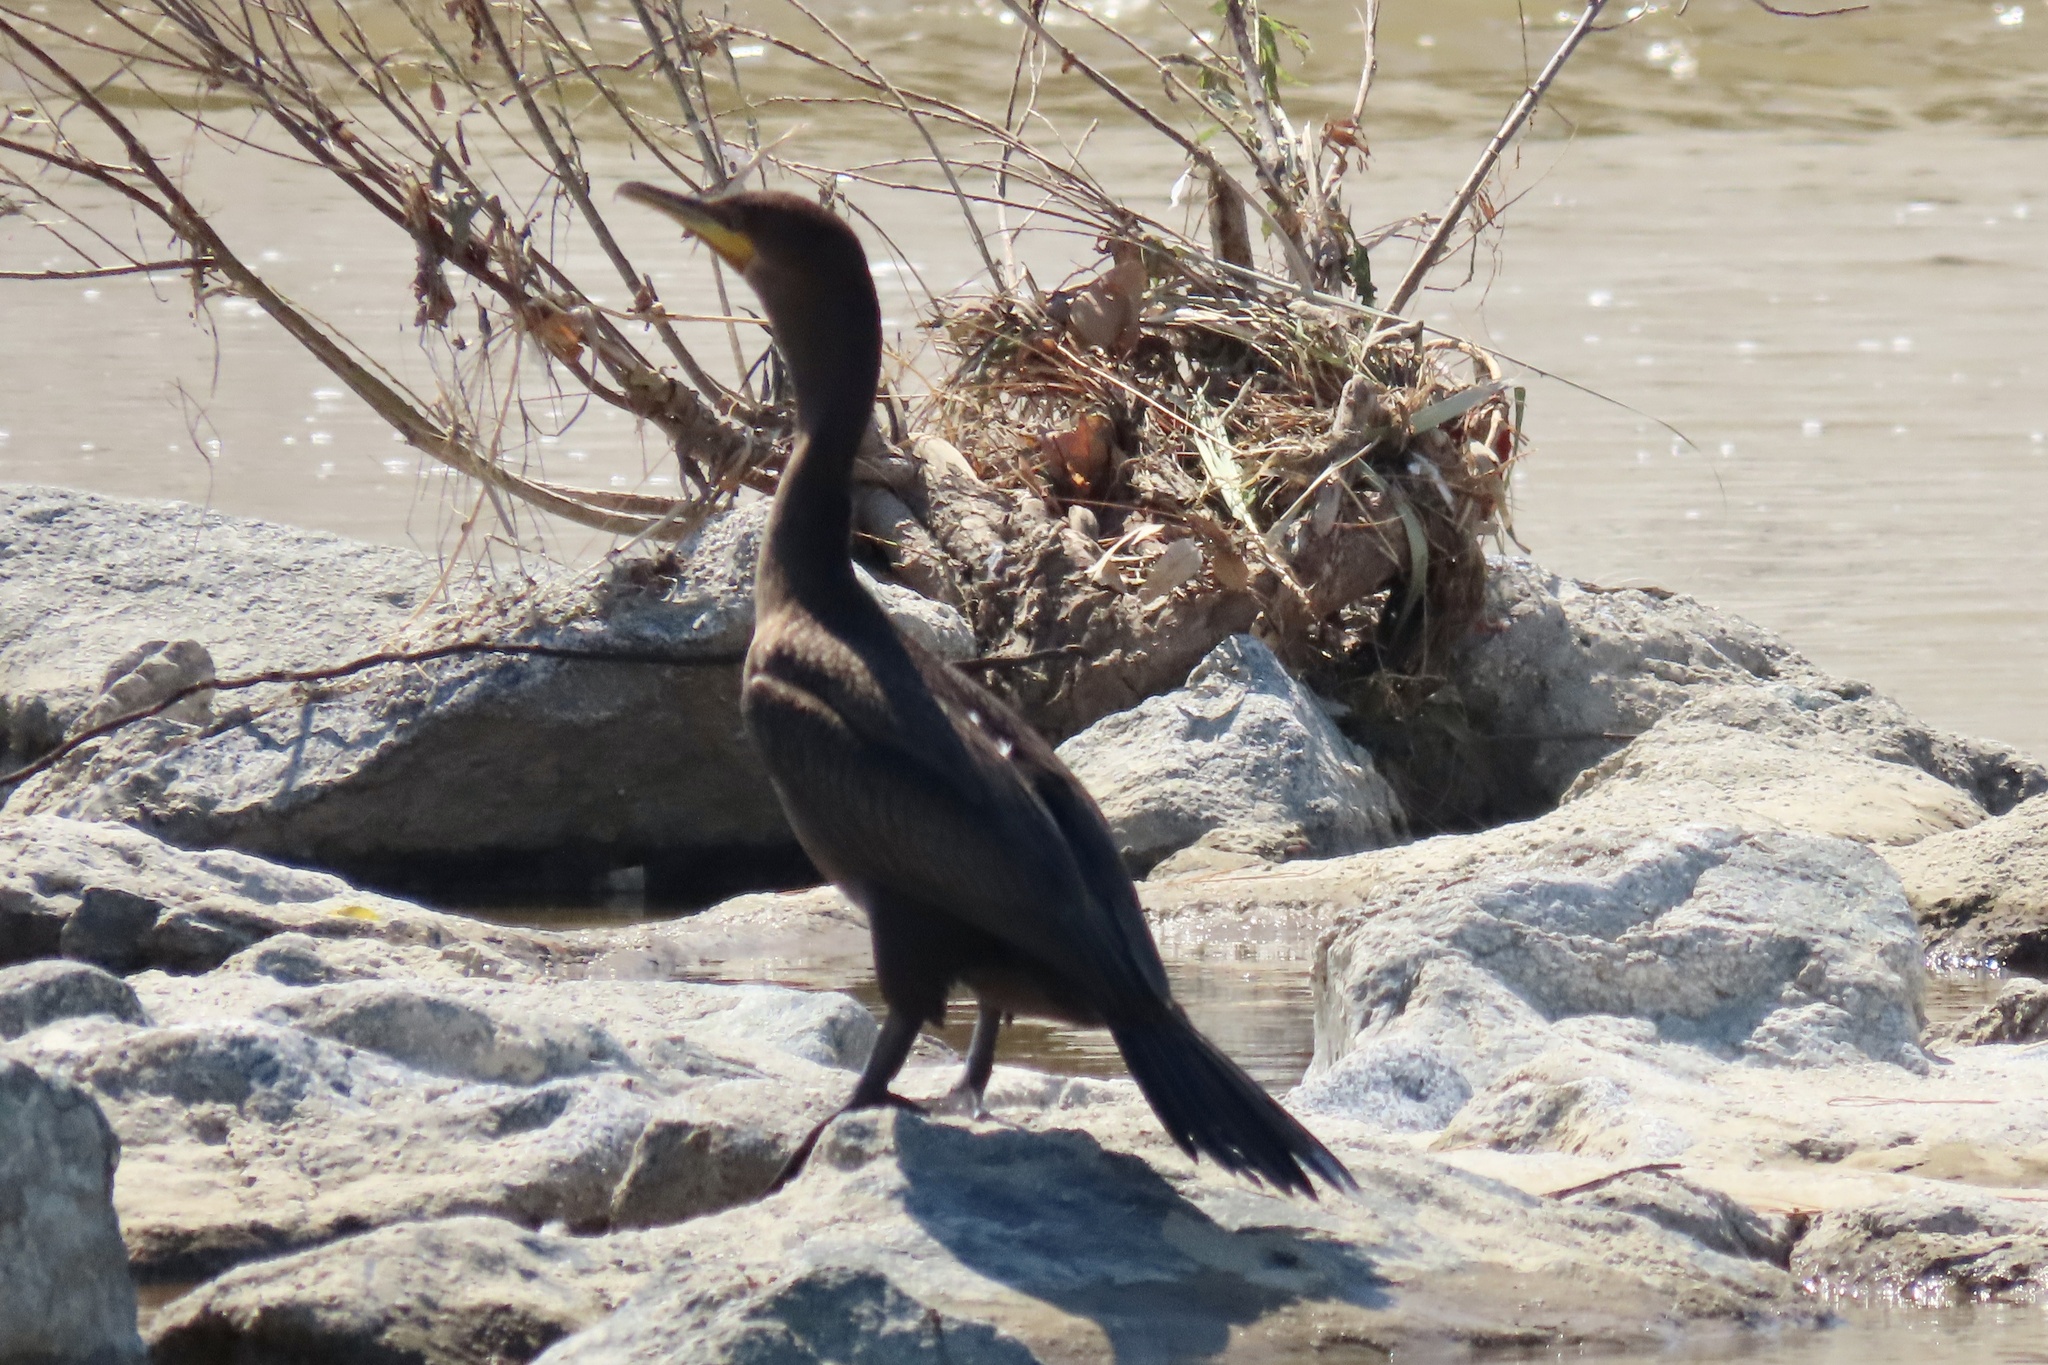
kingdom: Animalia
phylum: Chordata
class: Aves
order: Suliformes
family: Phalacrocoracidae
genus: Phalacrocorax
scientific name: Phalacrocorax auritus
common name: Double-crested cormorant
